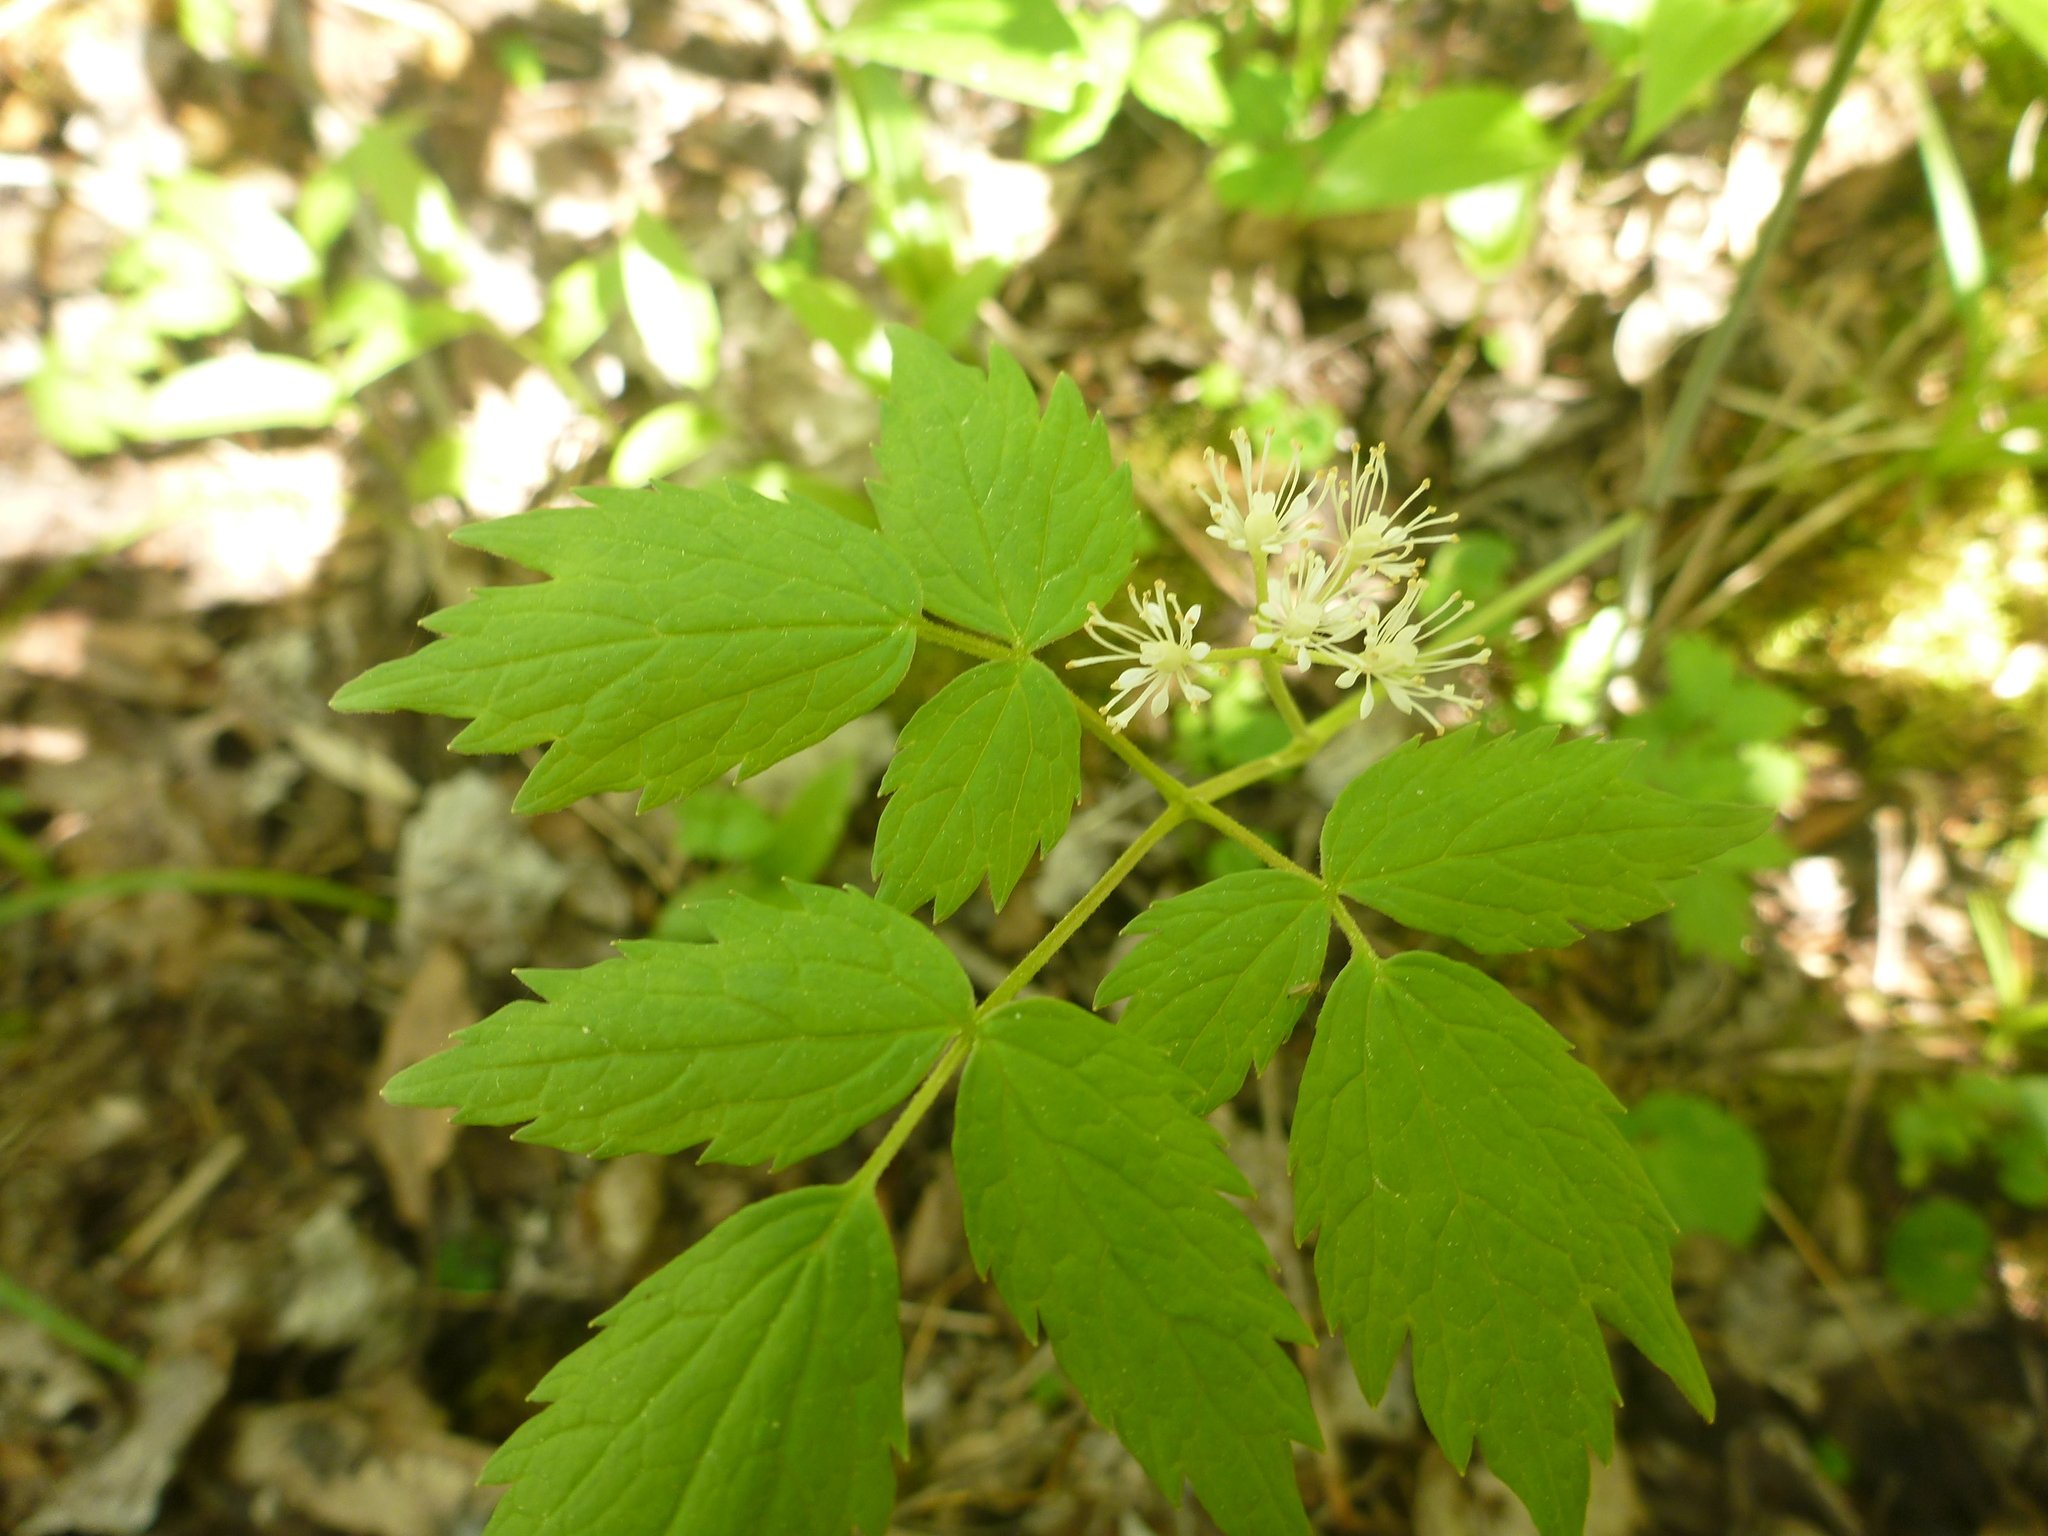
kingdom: Plantae
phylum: Tracheophyta
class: Magnoliopsida
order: Ranunculales
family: Ranunculaceae
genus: Actaea
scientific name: Actaea rubra
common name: Red baneberry
